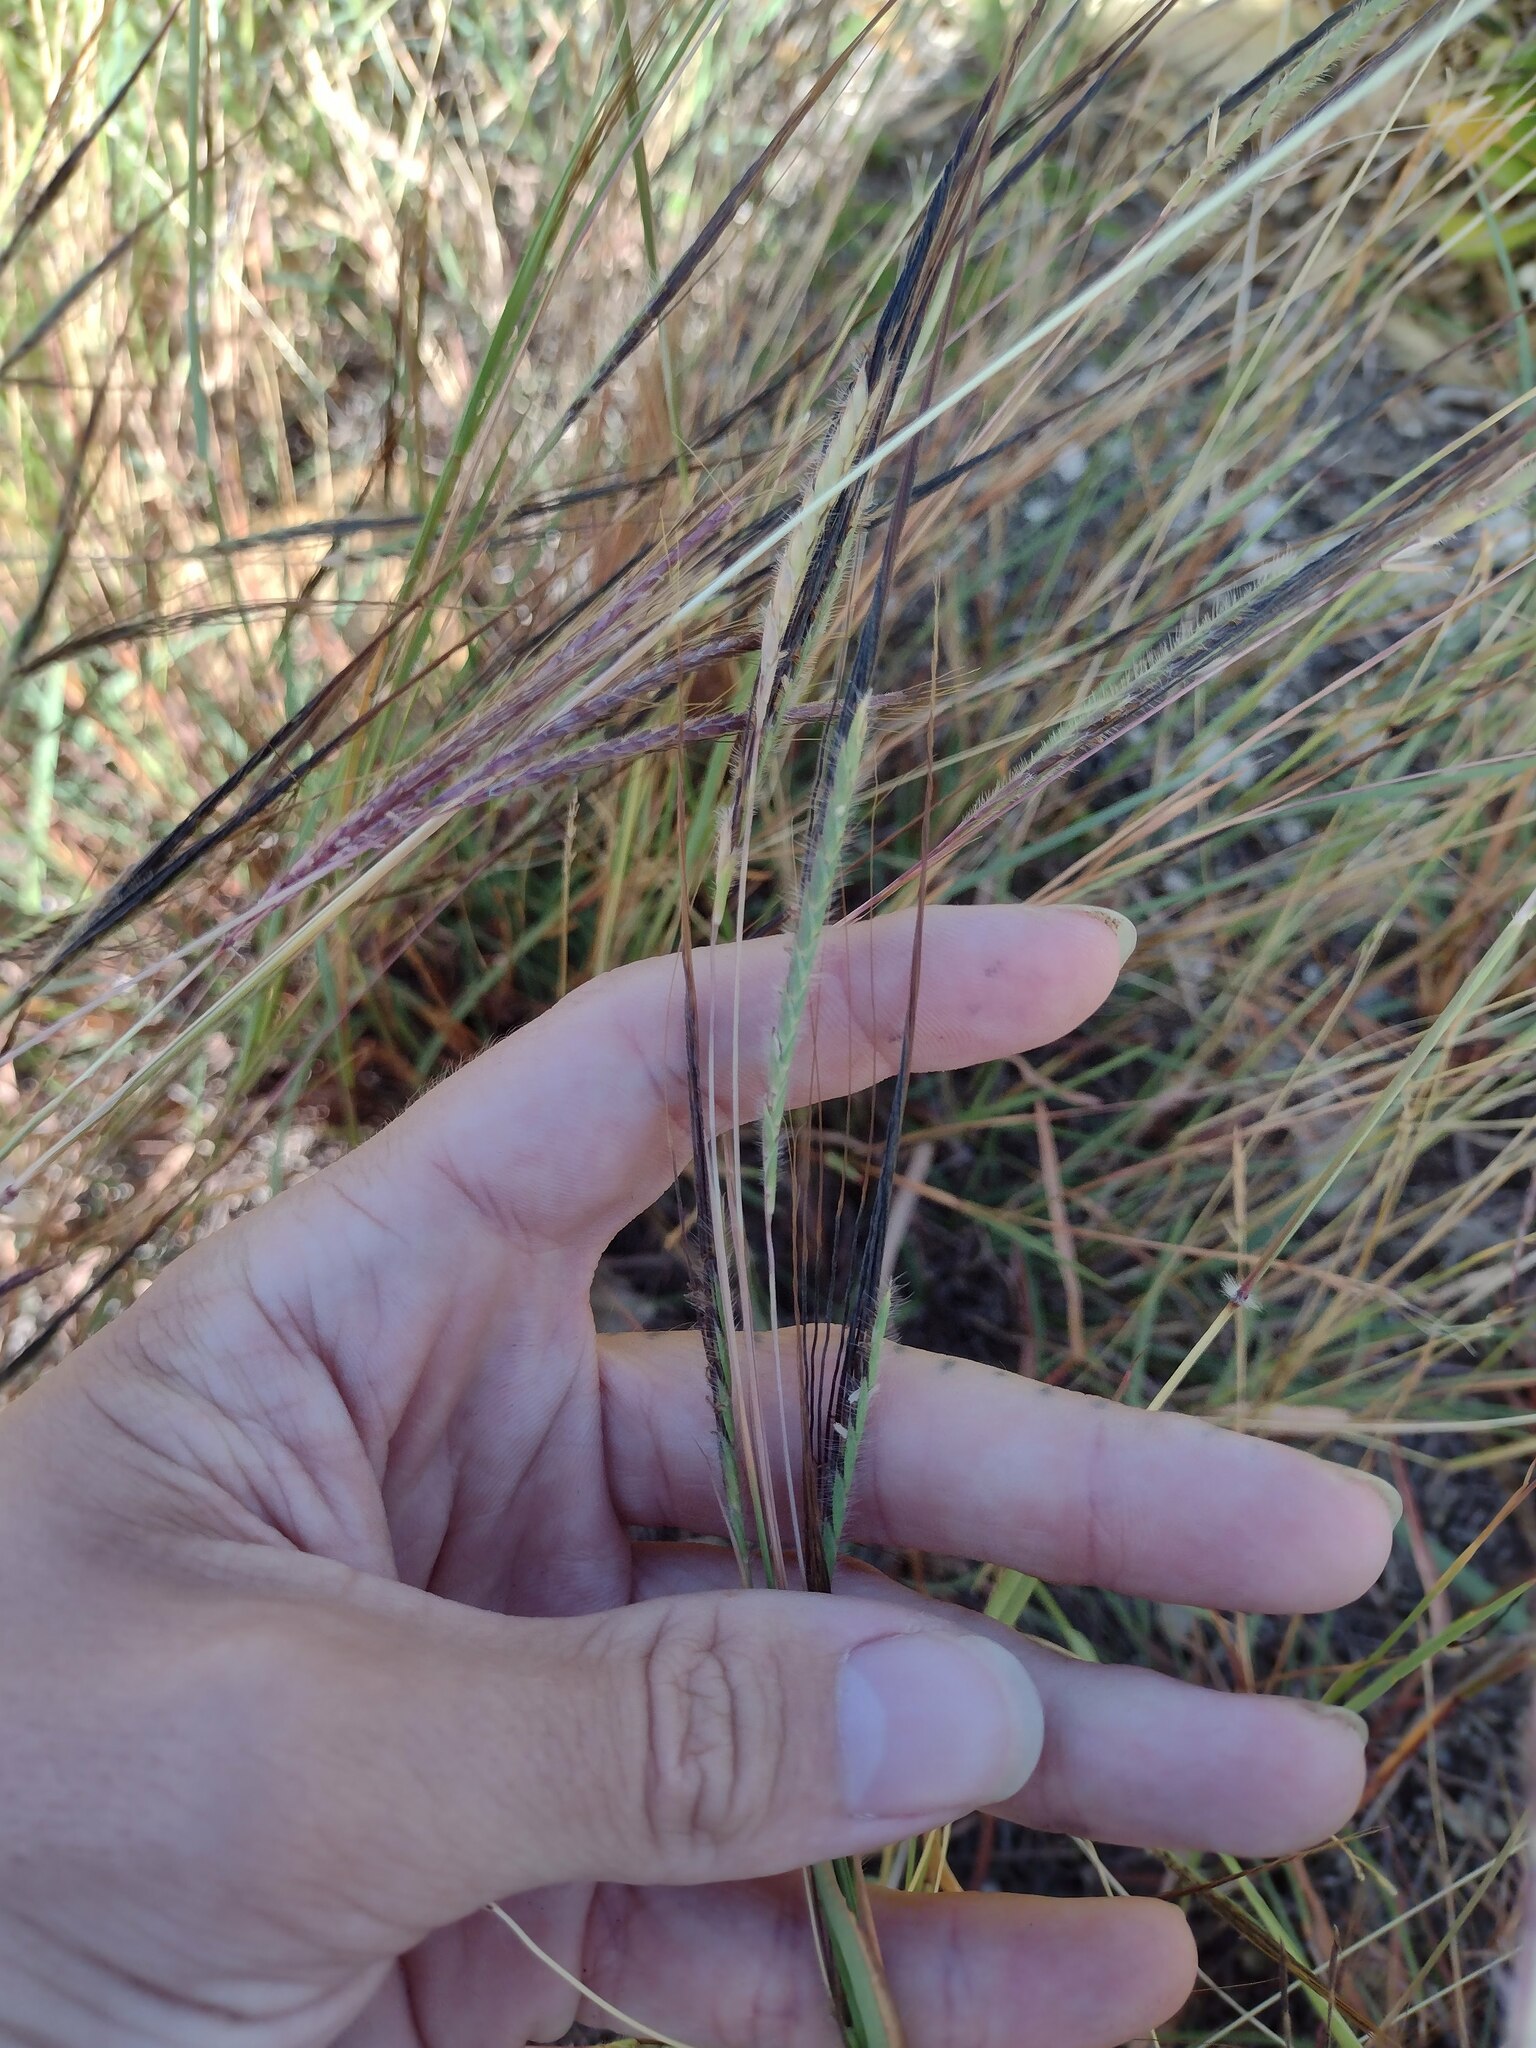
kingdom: Plantae
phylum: Tracheophyta
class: Liliopsida
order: Poales
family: Poaceae
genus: Heteropogon
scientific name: Heteropogon contortus
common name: Tanglehead
